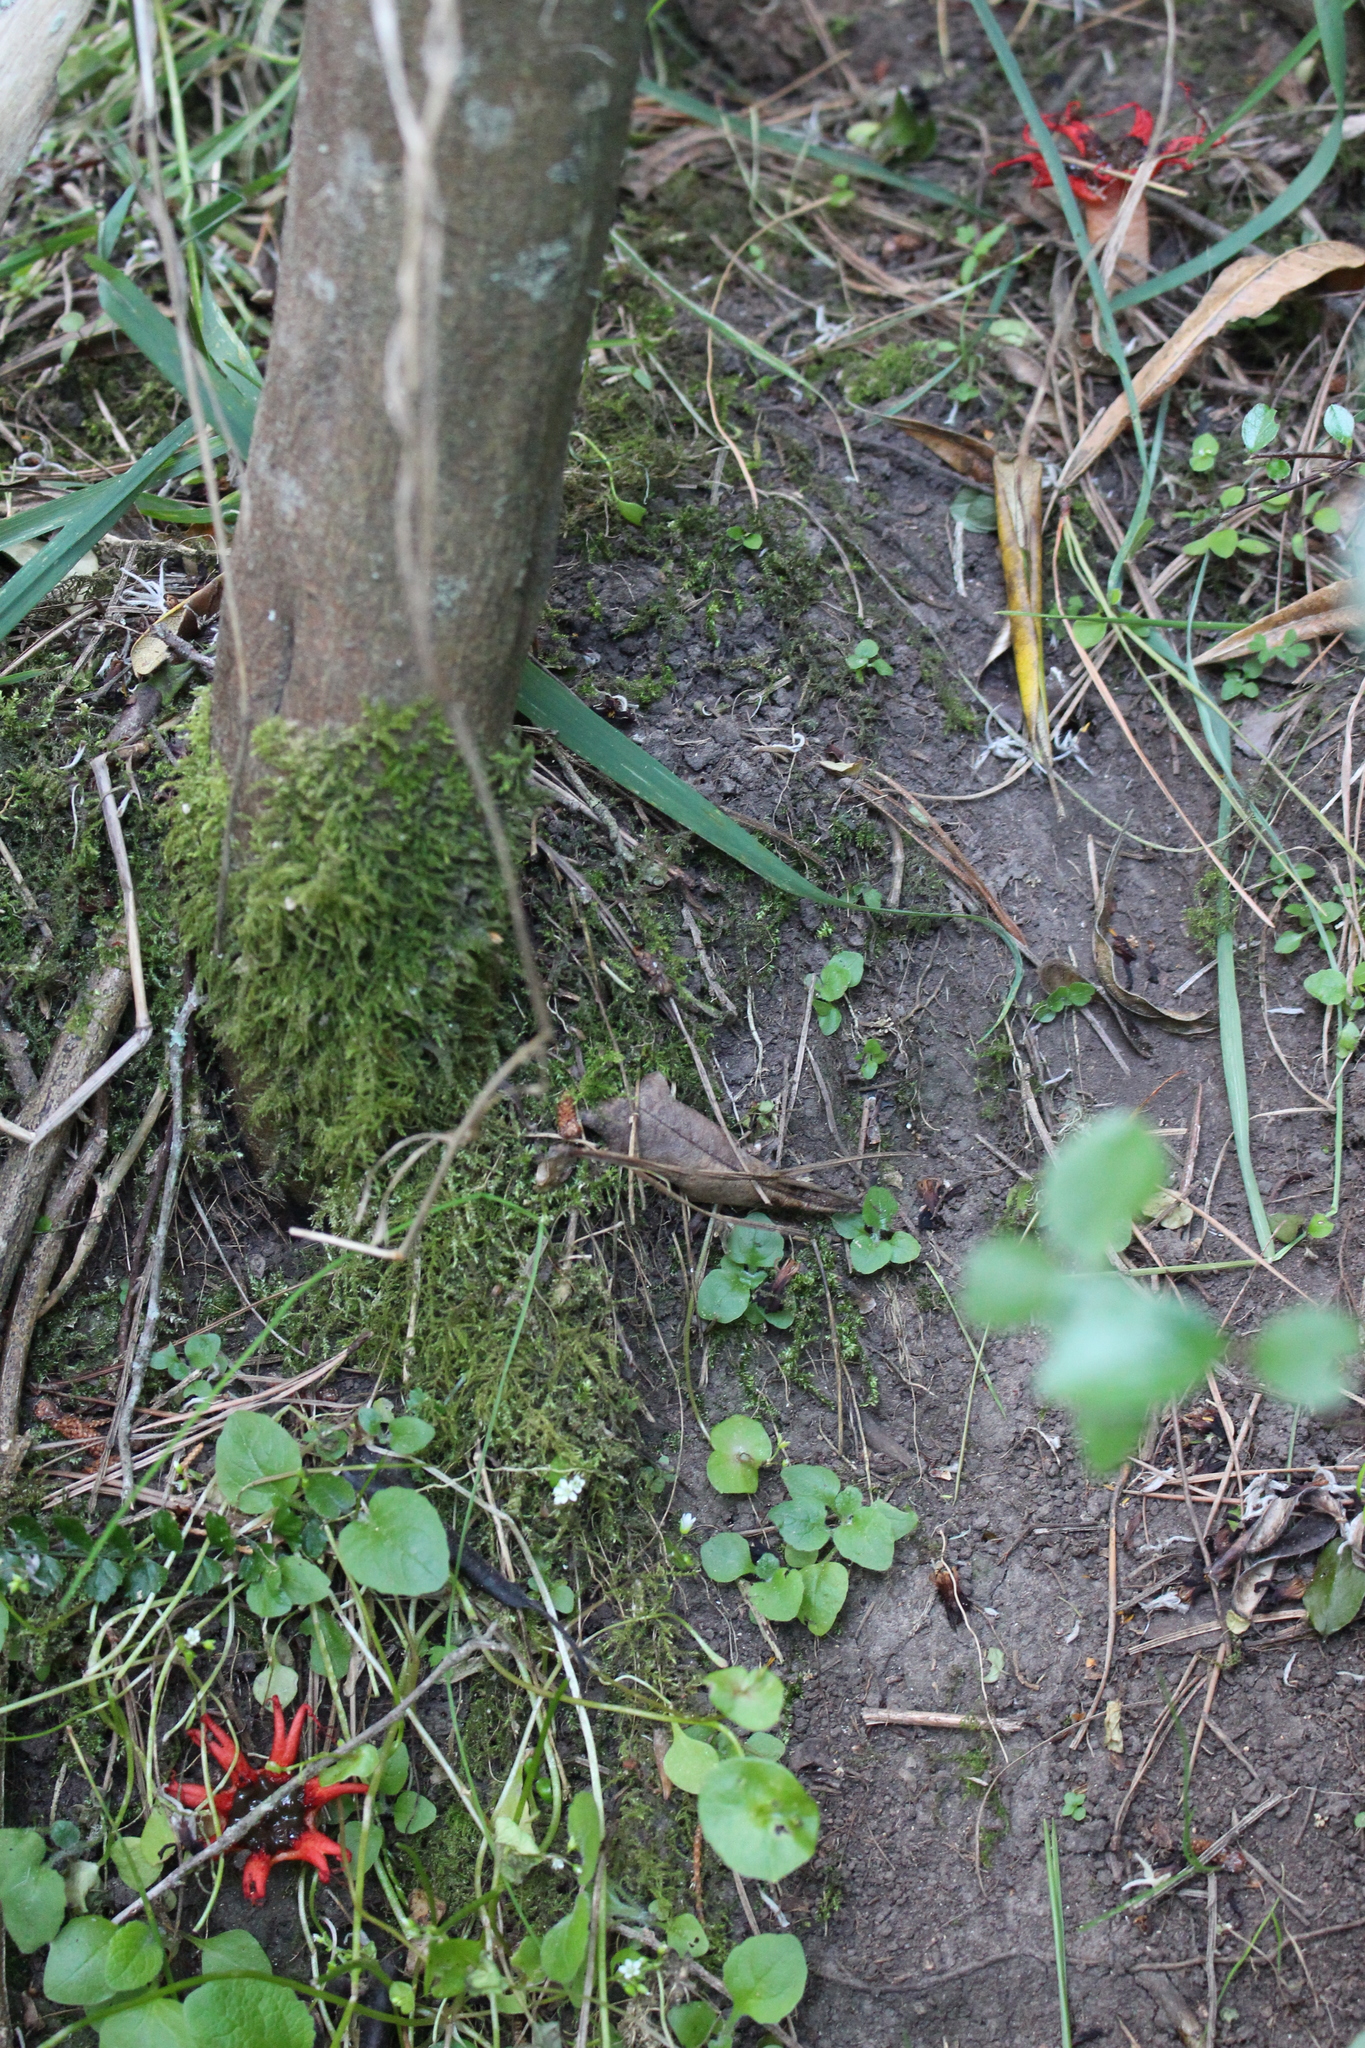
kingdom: Fungi
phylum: Basidiomycota
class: Agaricomycetes
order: Phallales
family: Phallaceae
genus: Aseroe
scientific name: Aseroe rubra
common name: Starfish fungus
